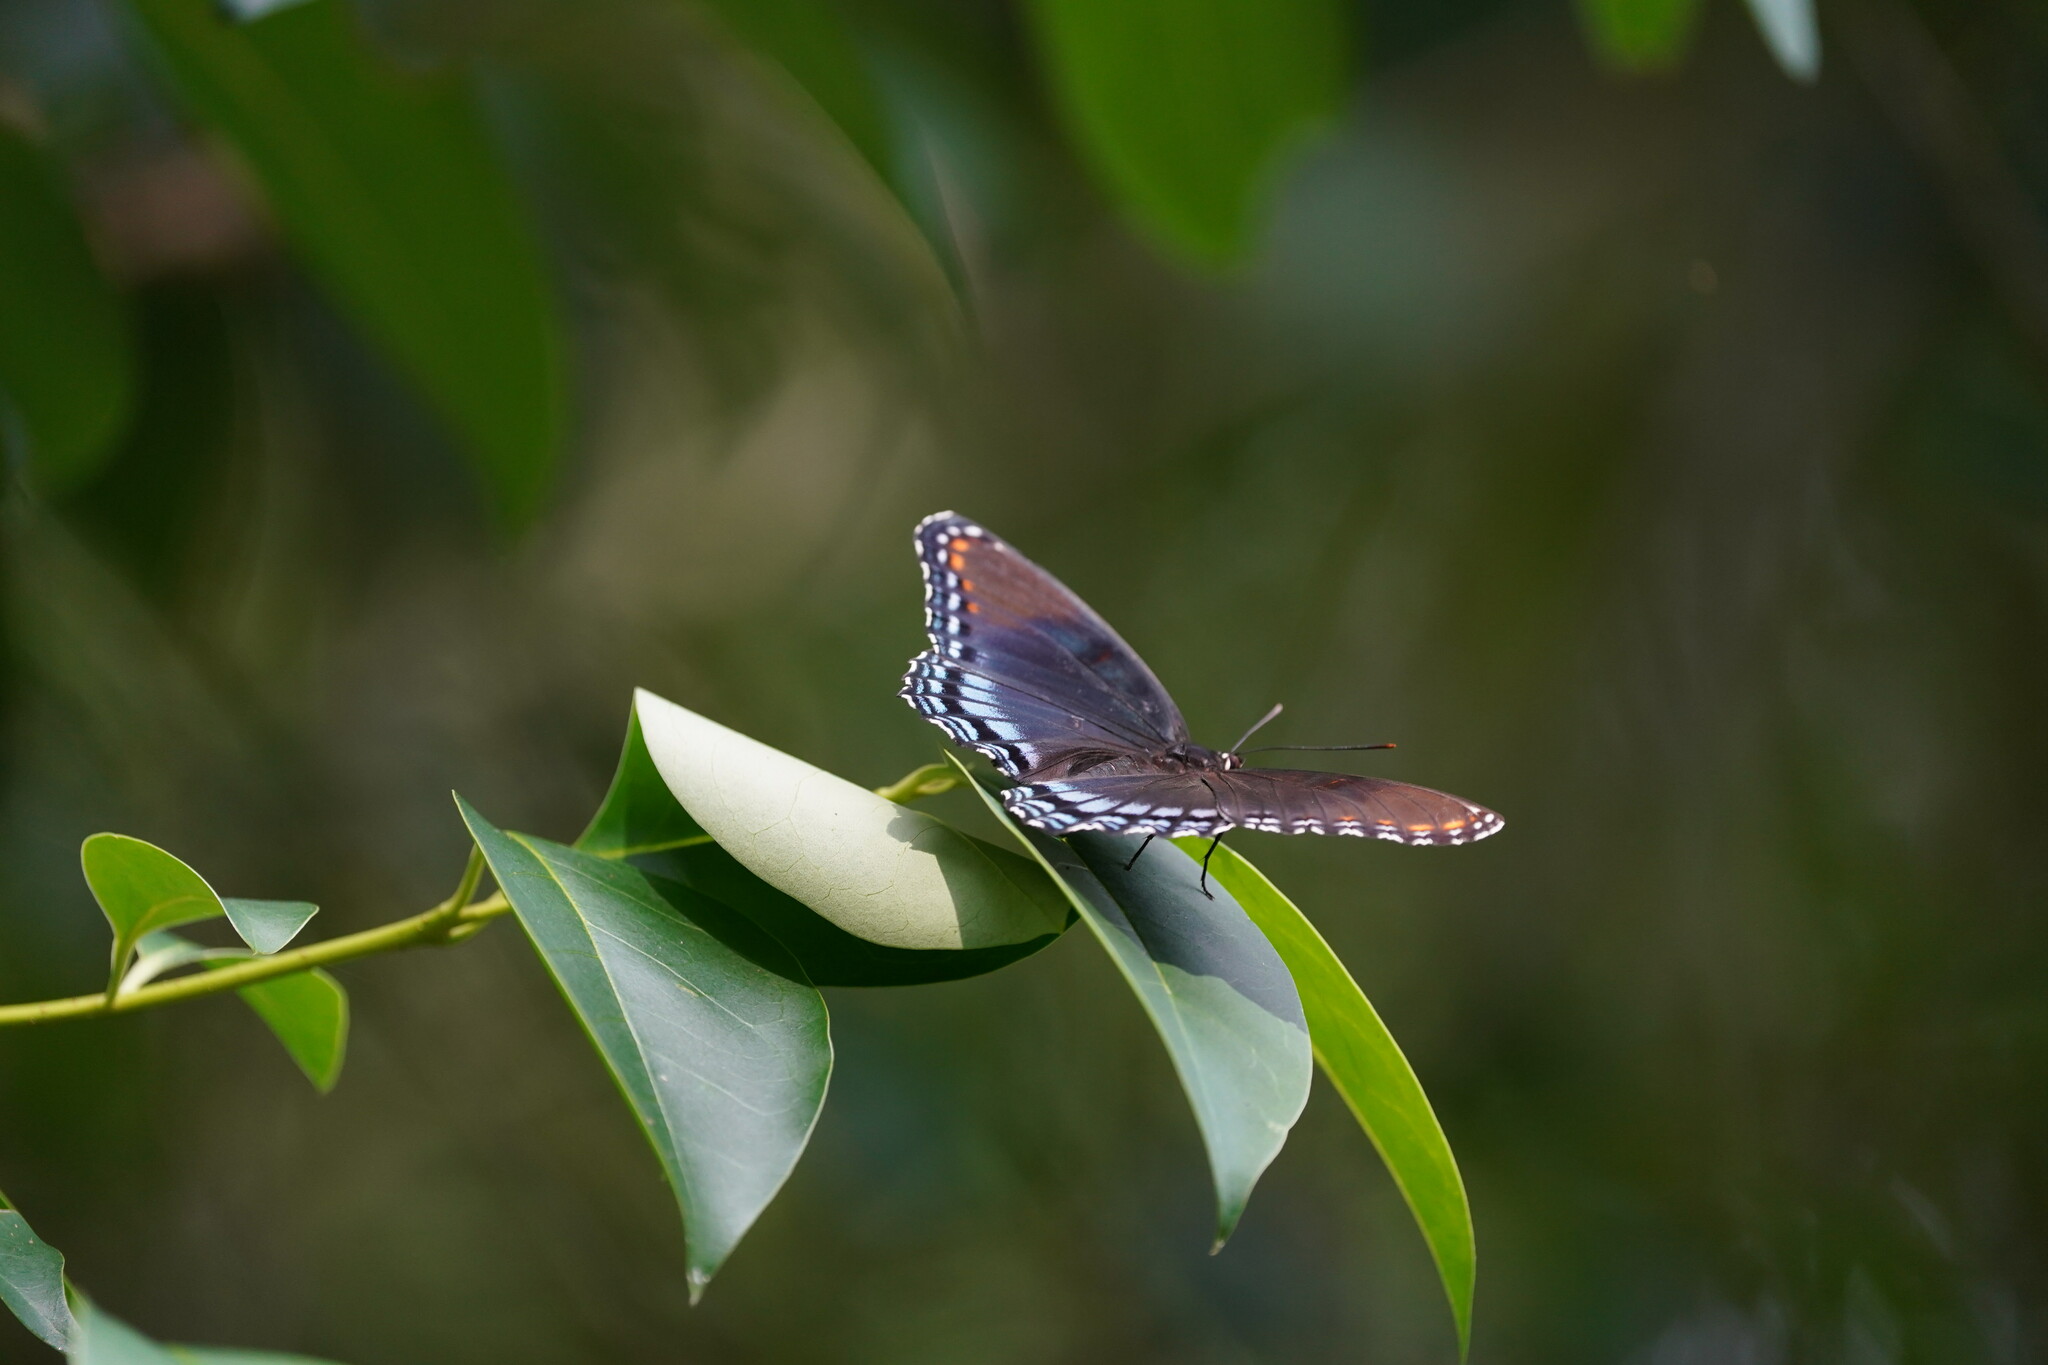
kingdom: Animalia
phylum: Arthropoda
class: Insecta
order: Lepidoptera
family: Nymphalidae
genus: Limenitis
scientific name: Limenitis arthemis
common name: Red-spotted admiral
